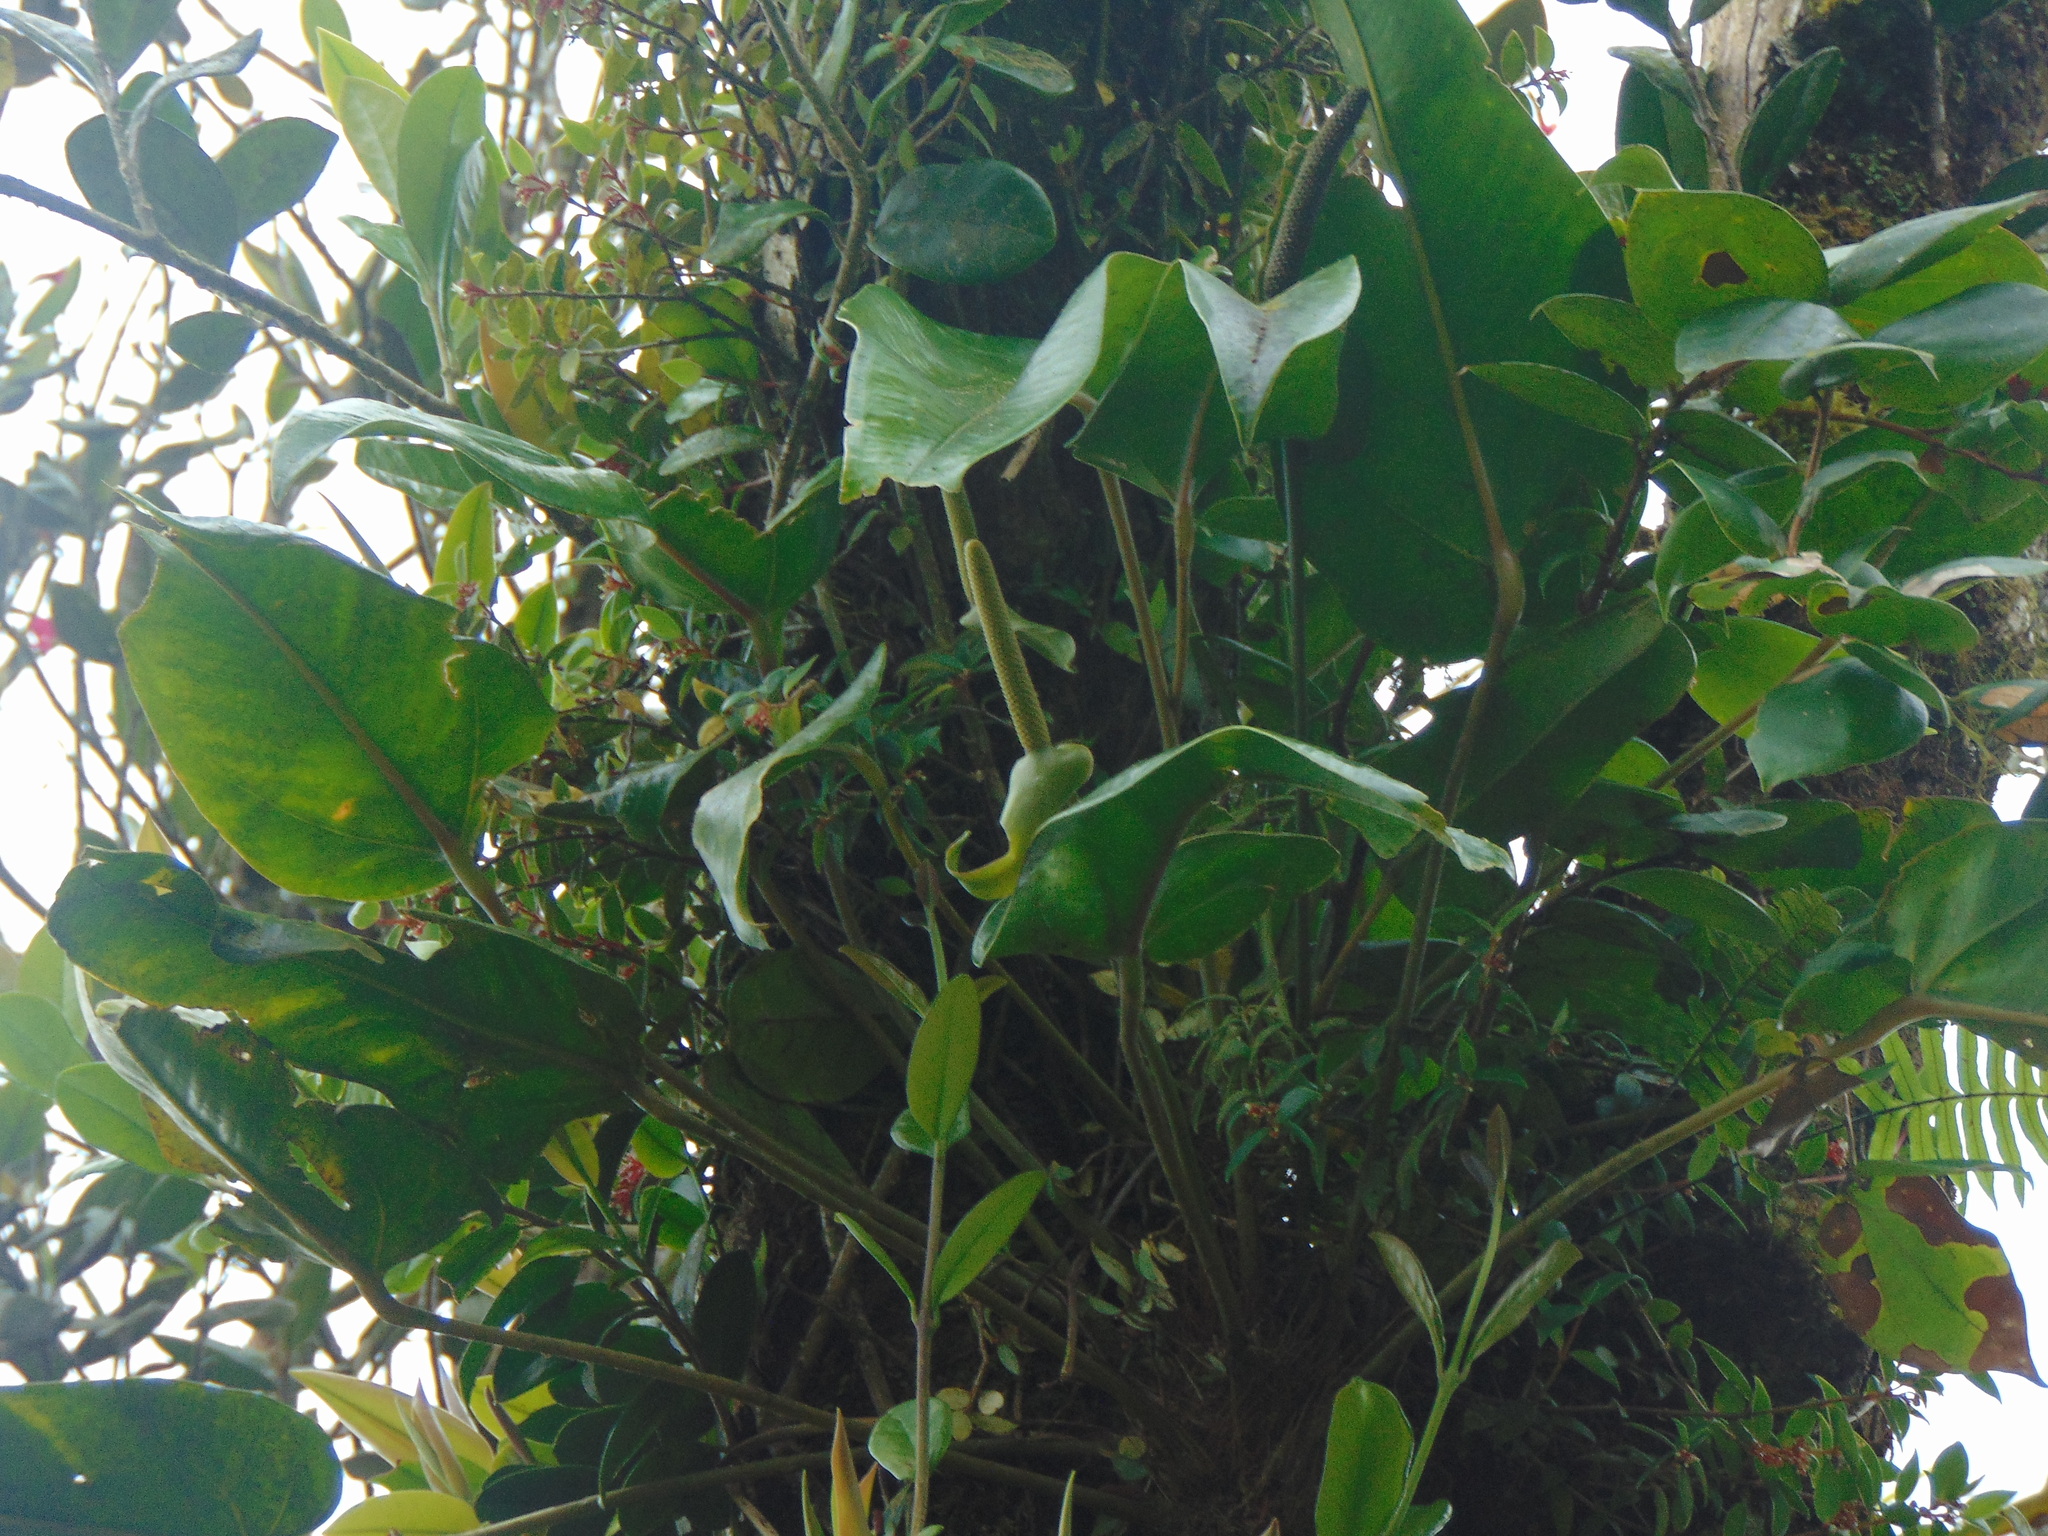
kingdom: Plantae
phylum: Tracheophyta
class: Liliopsida
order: Alismatales
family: Araceae
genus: Anthurium
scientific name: Anthurium dominicense
